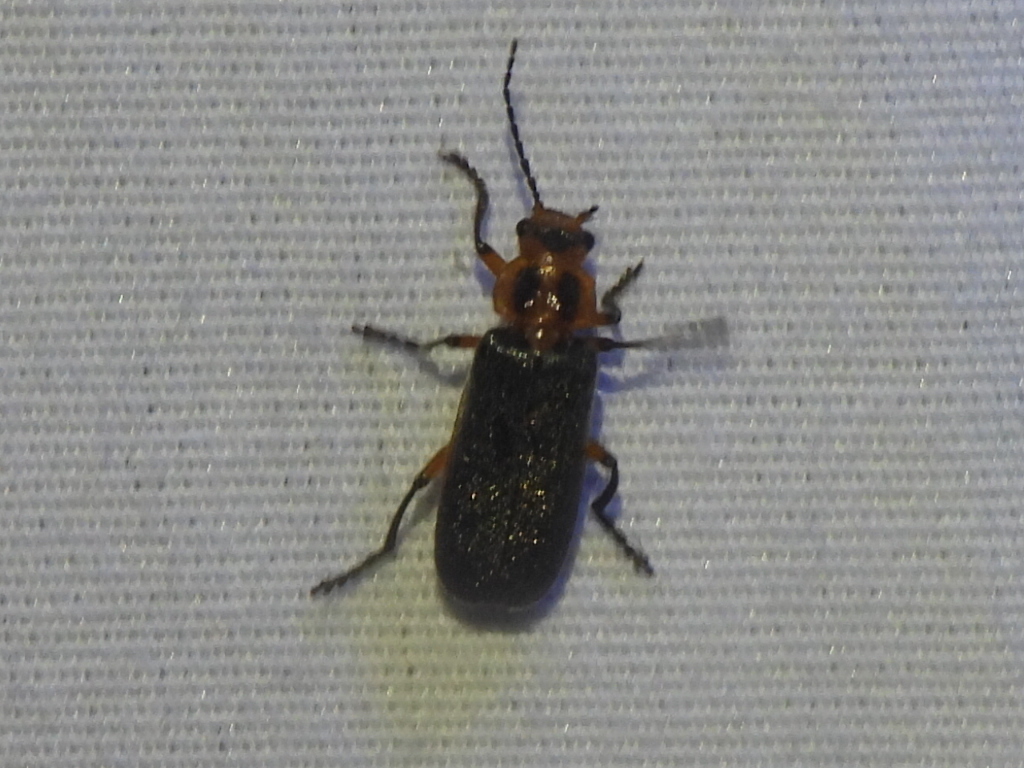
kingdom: Animalia
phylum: Arthropoda
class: Insecta
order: Coleoptera
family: Cantharidae
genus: Atalantycha
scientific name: Atalantycha bilineata
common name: Two-lined leatherwing
